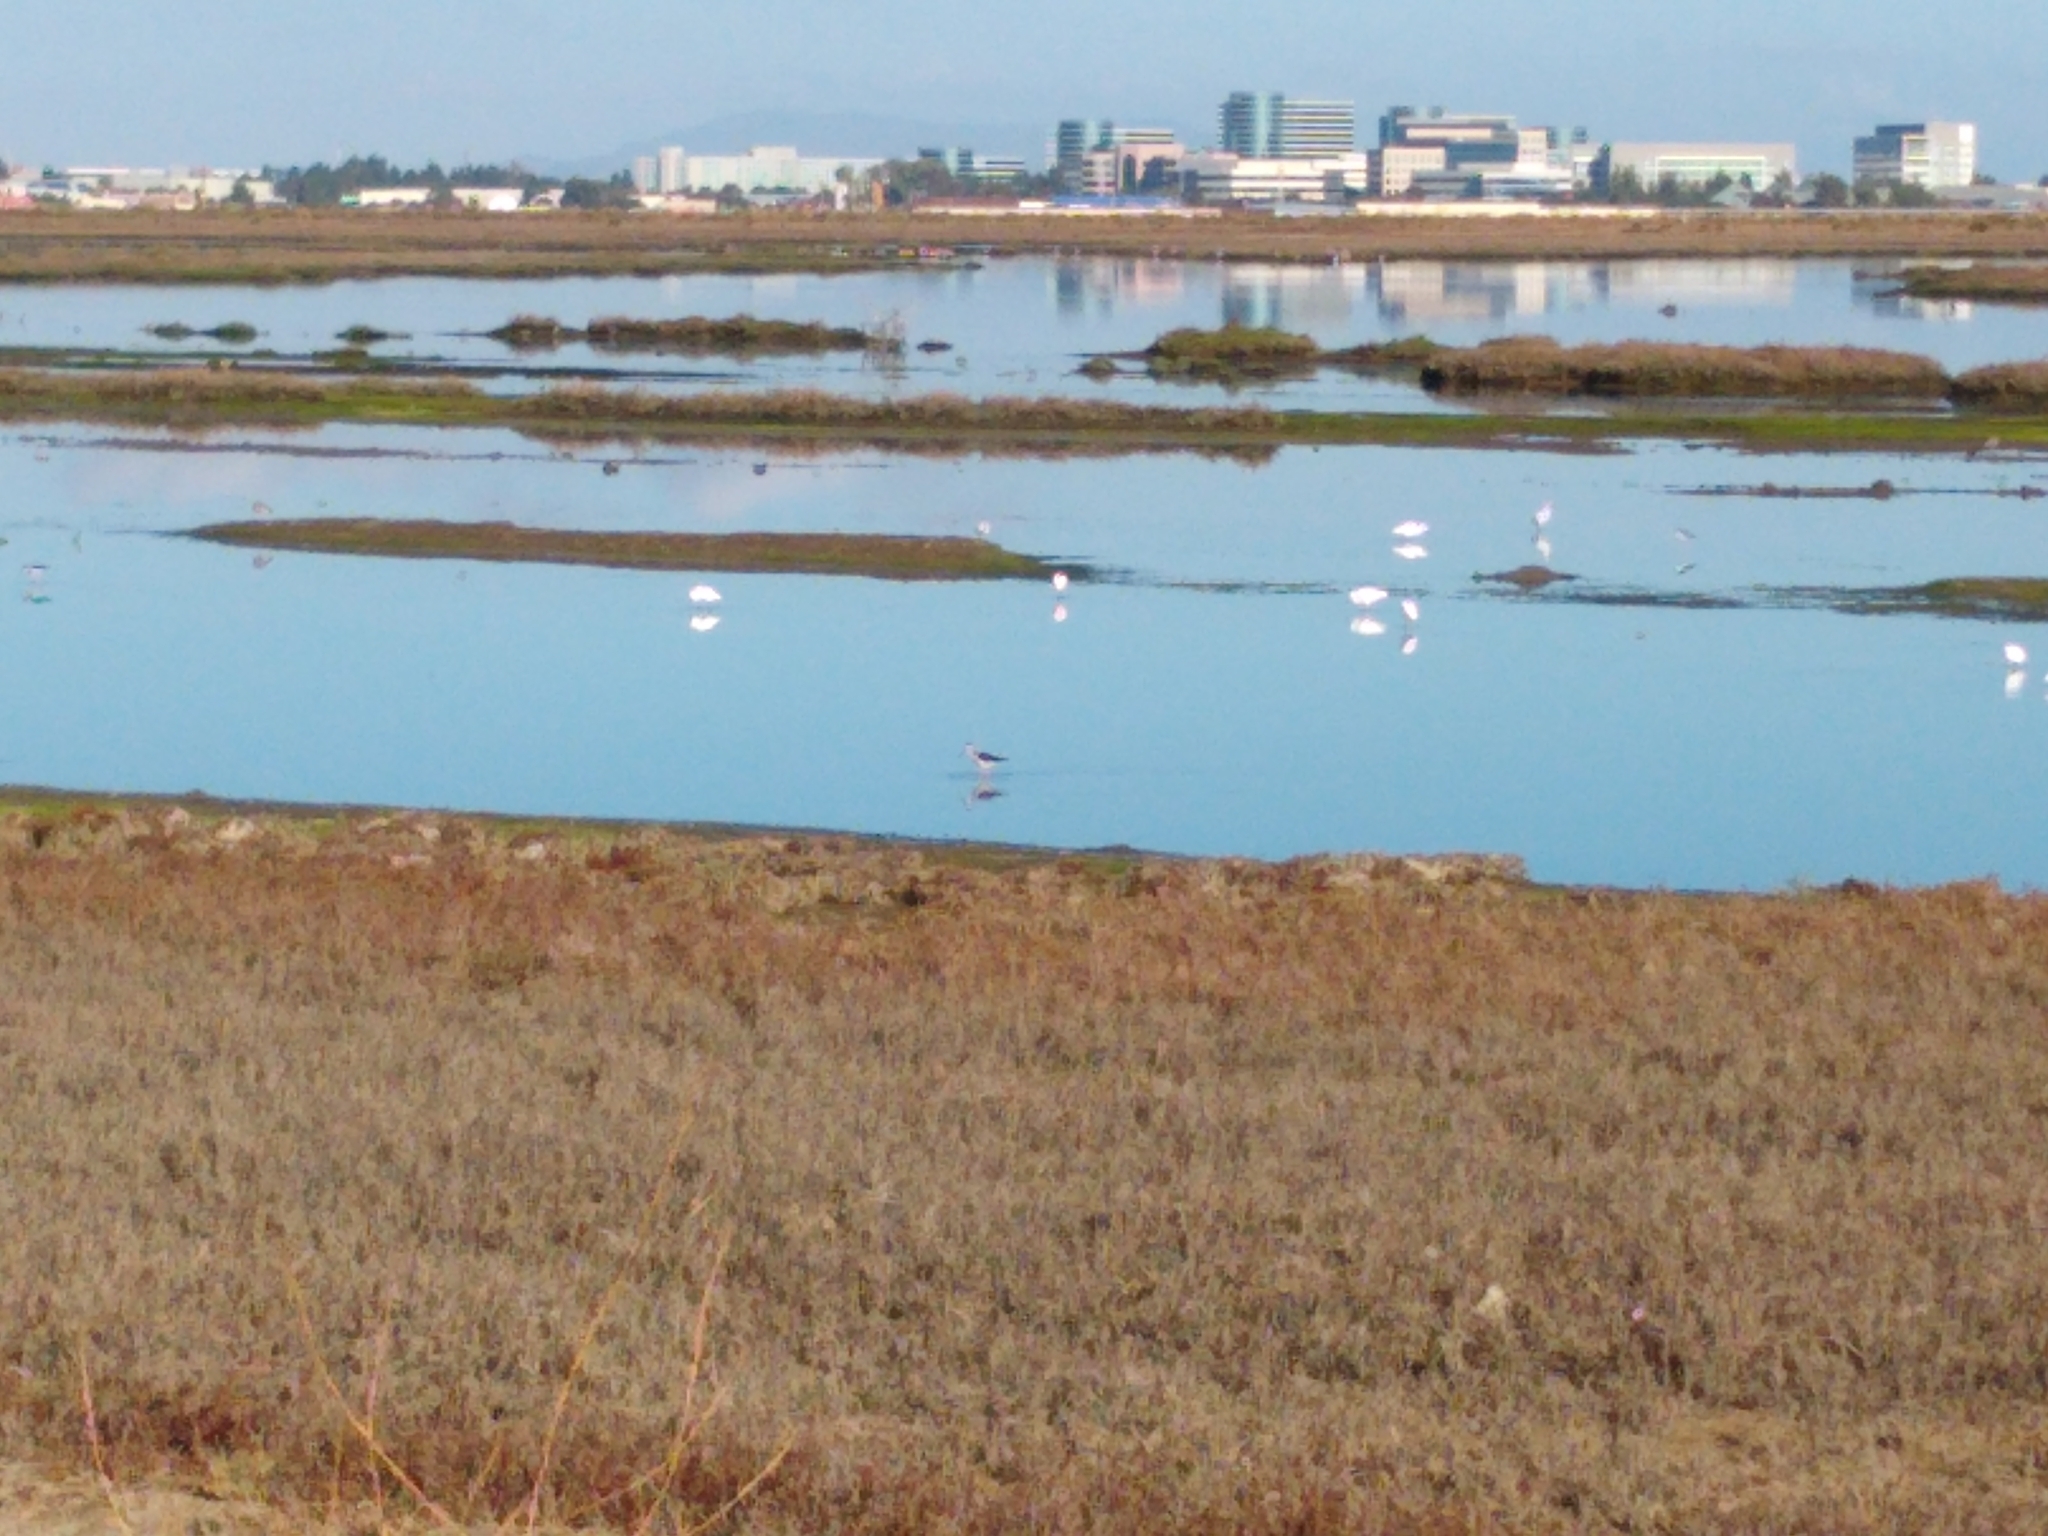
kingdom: Animalia
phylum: Chordata
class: Aves
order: Charadriiformes
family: Recurvirostridae
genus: Himantopus
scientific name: Himantopus mexicanus
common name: Black-necked stilt
